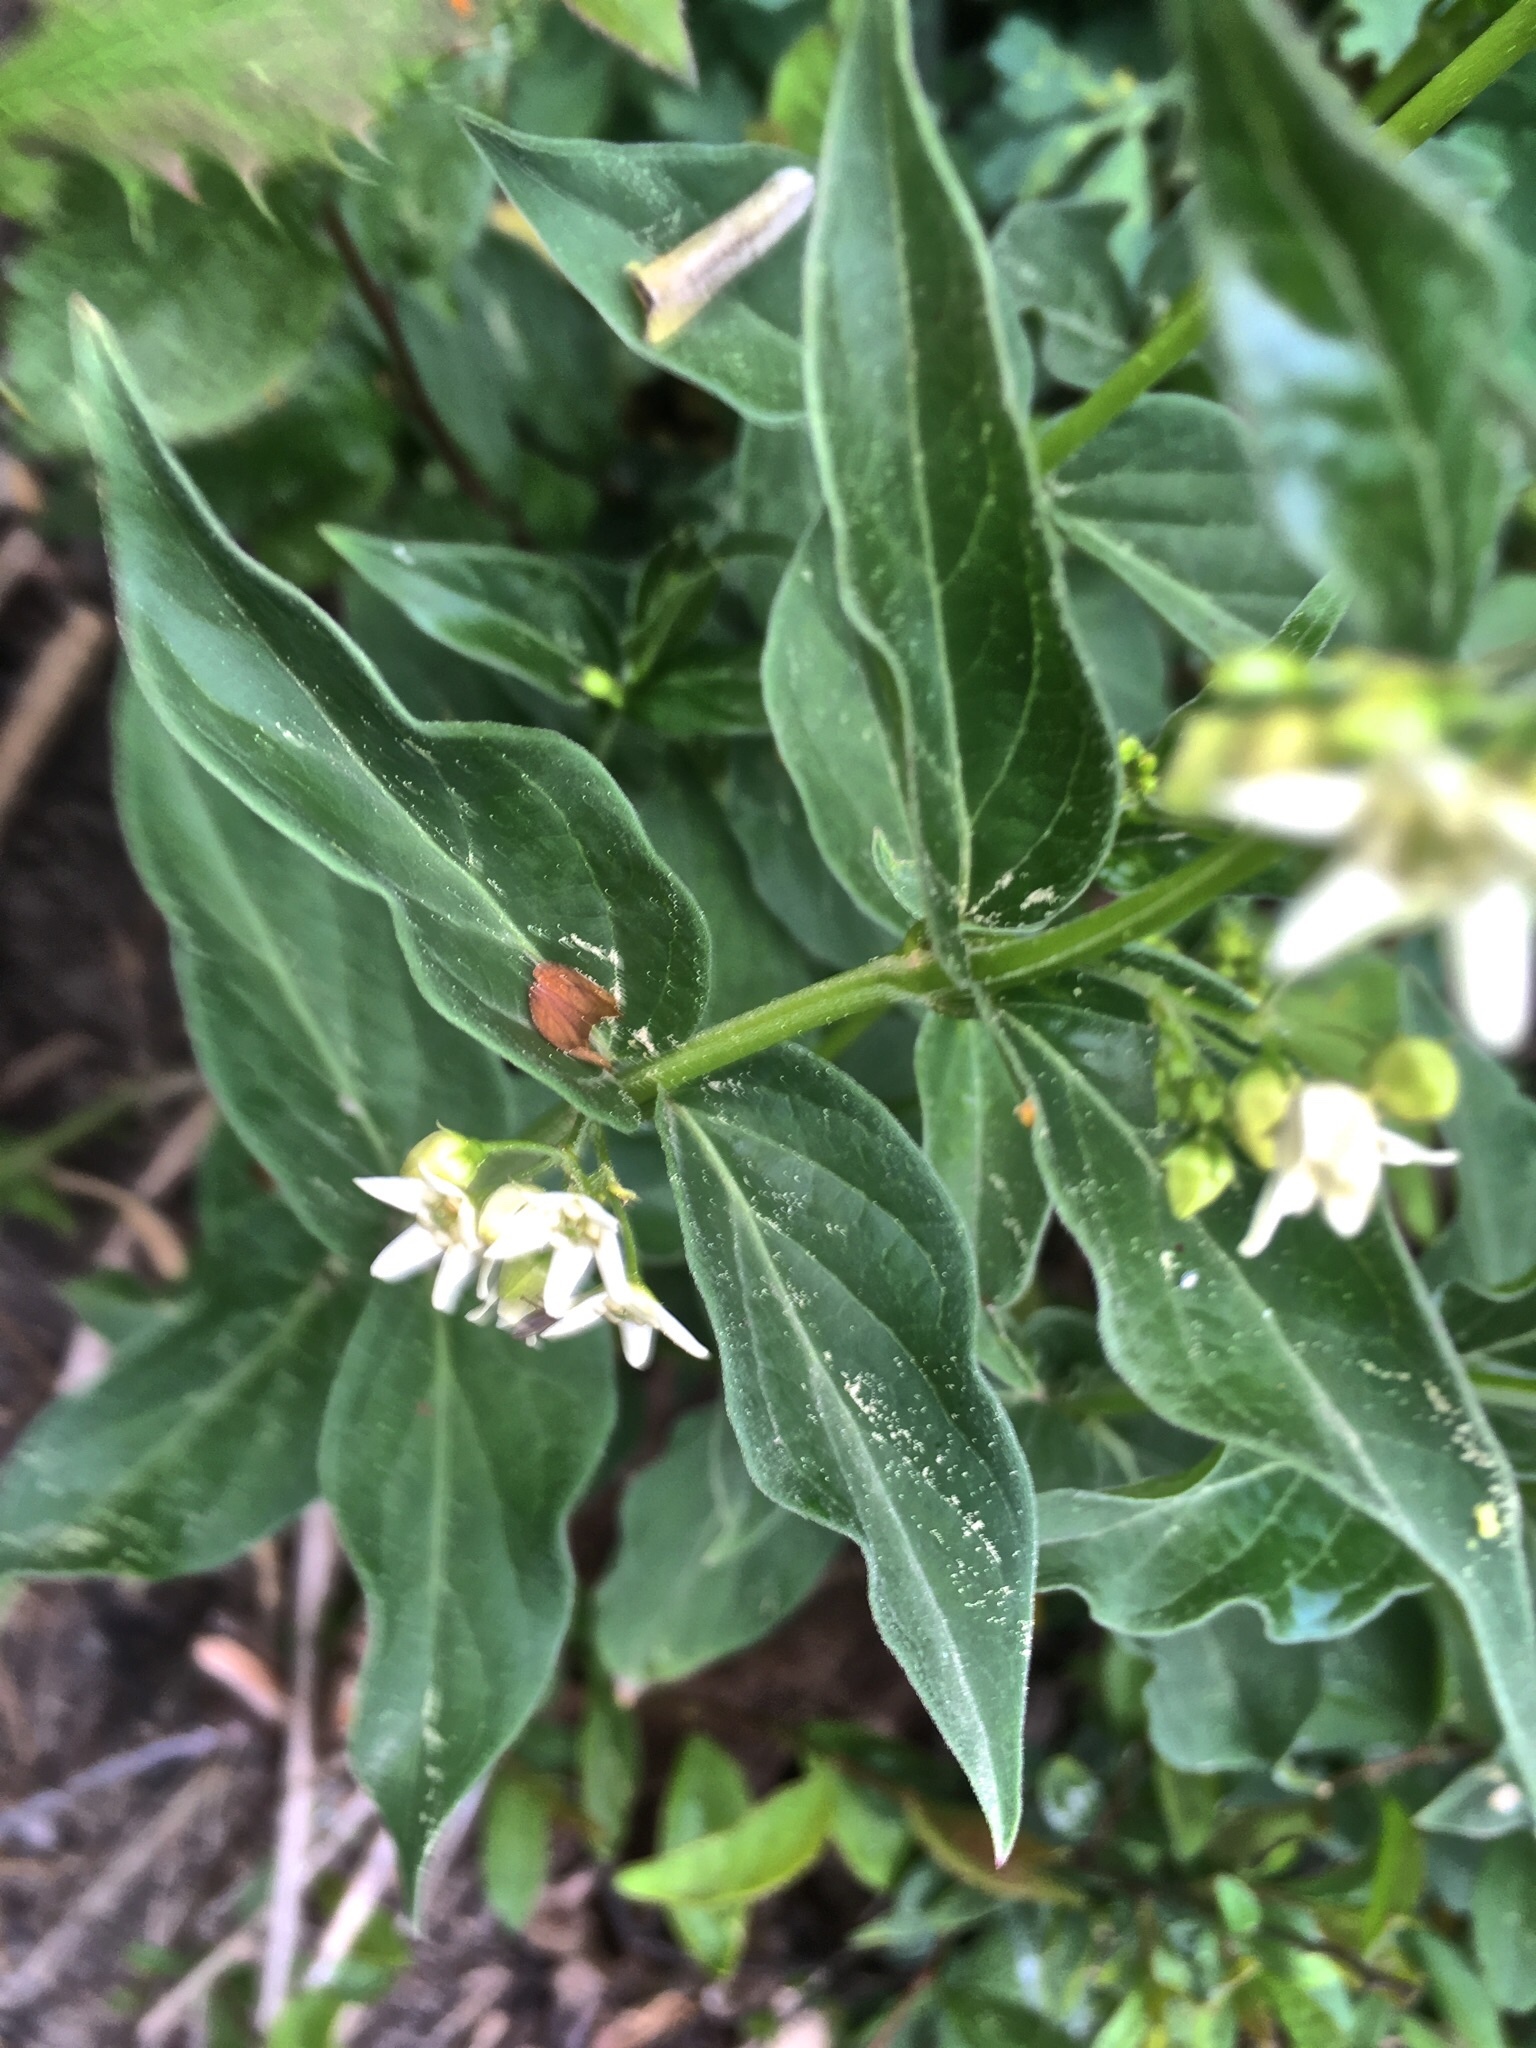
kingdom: Plantae
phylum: Tracheophyta
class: Magnoliopsida
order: Gentianales
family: Apocynaceae
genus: Vincetoxicum
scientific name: Vincetoxicum hirundinaria
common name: White swallowwort
